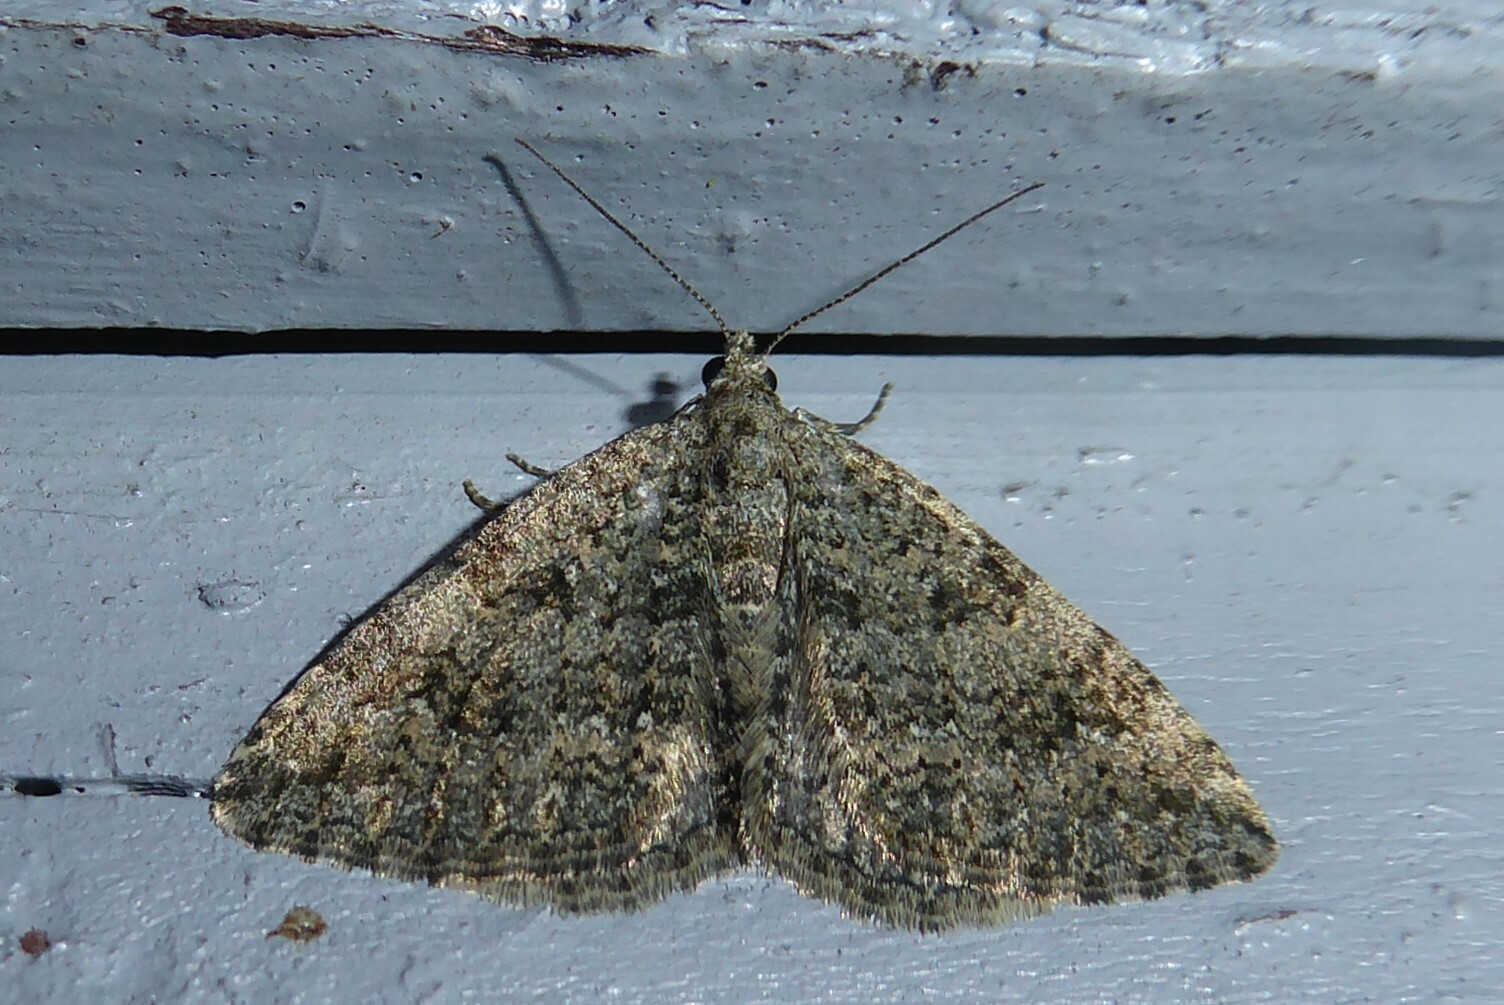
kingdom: Animalia
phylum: Arthropoda
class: Insecta
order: Lepidoptera
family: Geometridae
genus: Helastia
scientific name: Helastia corcularia
